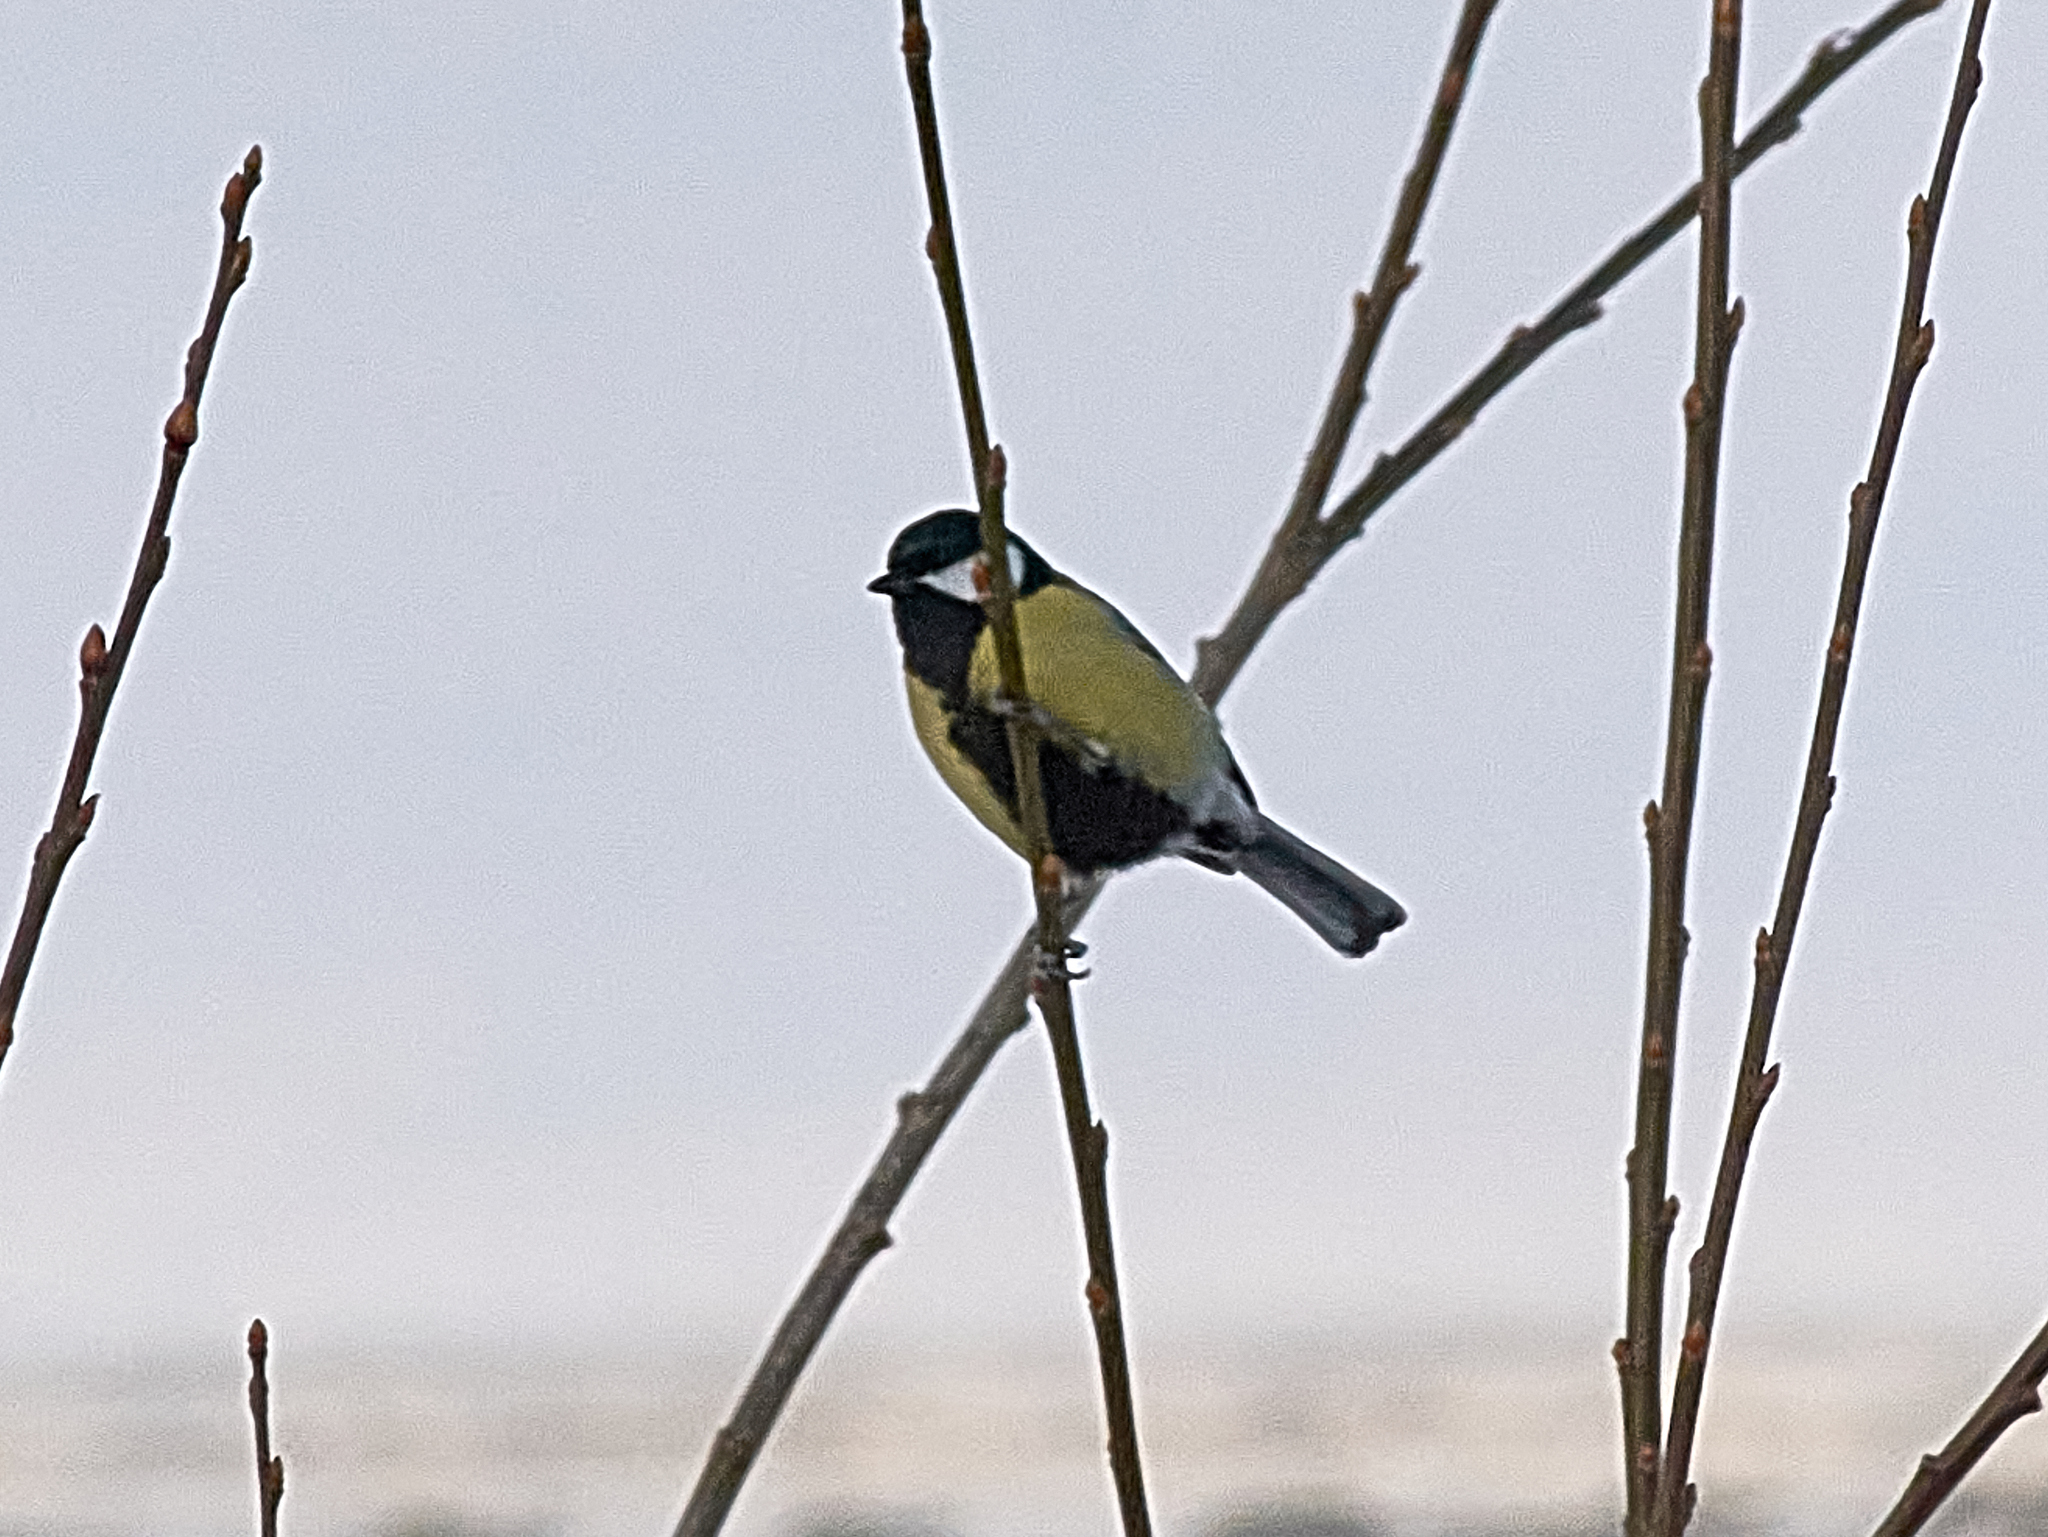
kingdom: Animalia
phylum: Chordata
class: Aves
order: Passeriformes
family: Paridae
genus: Parus
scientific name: Parus major
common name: Great tit
